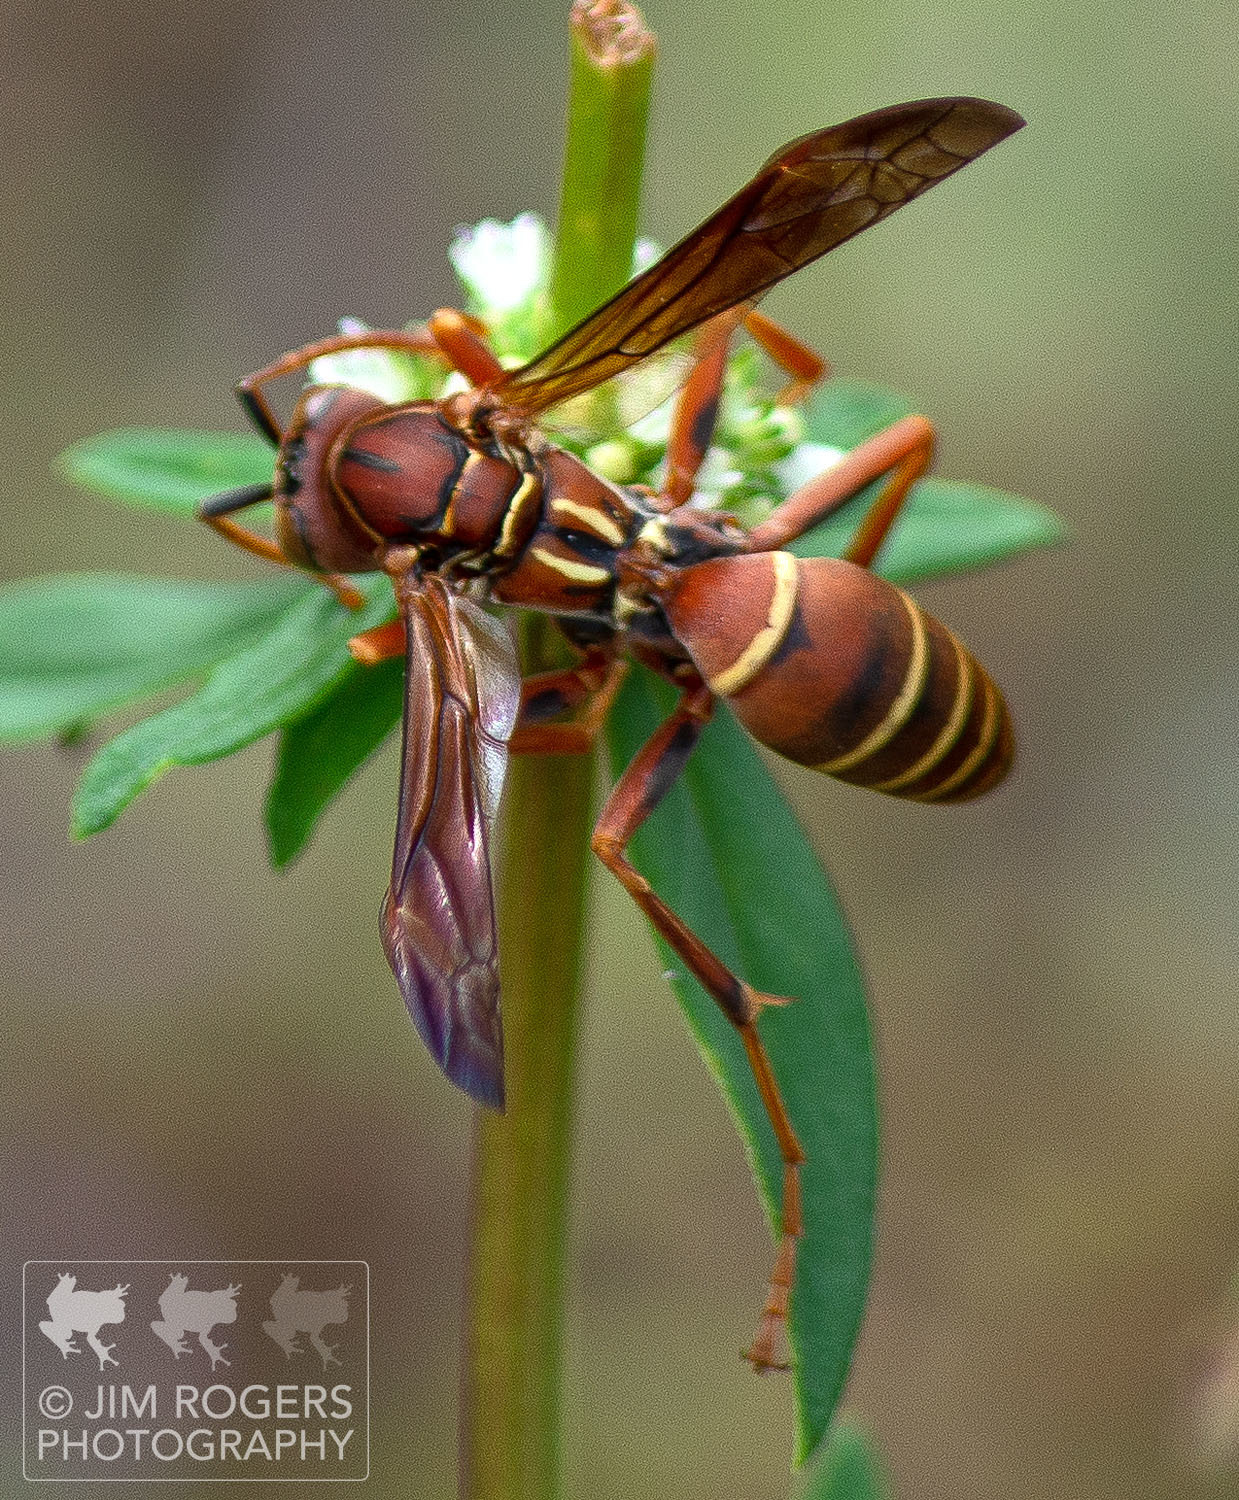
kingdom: Animalia
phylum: Arthropoda
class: Insecta
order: Hymenoptera
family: Eumenidae
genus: Polistes
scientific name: Polistes dorsalis
